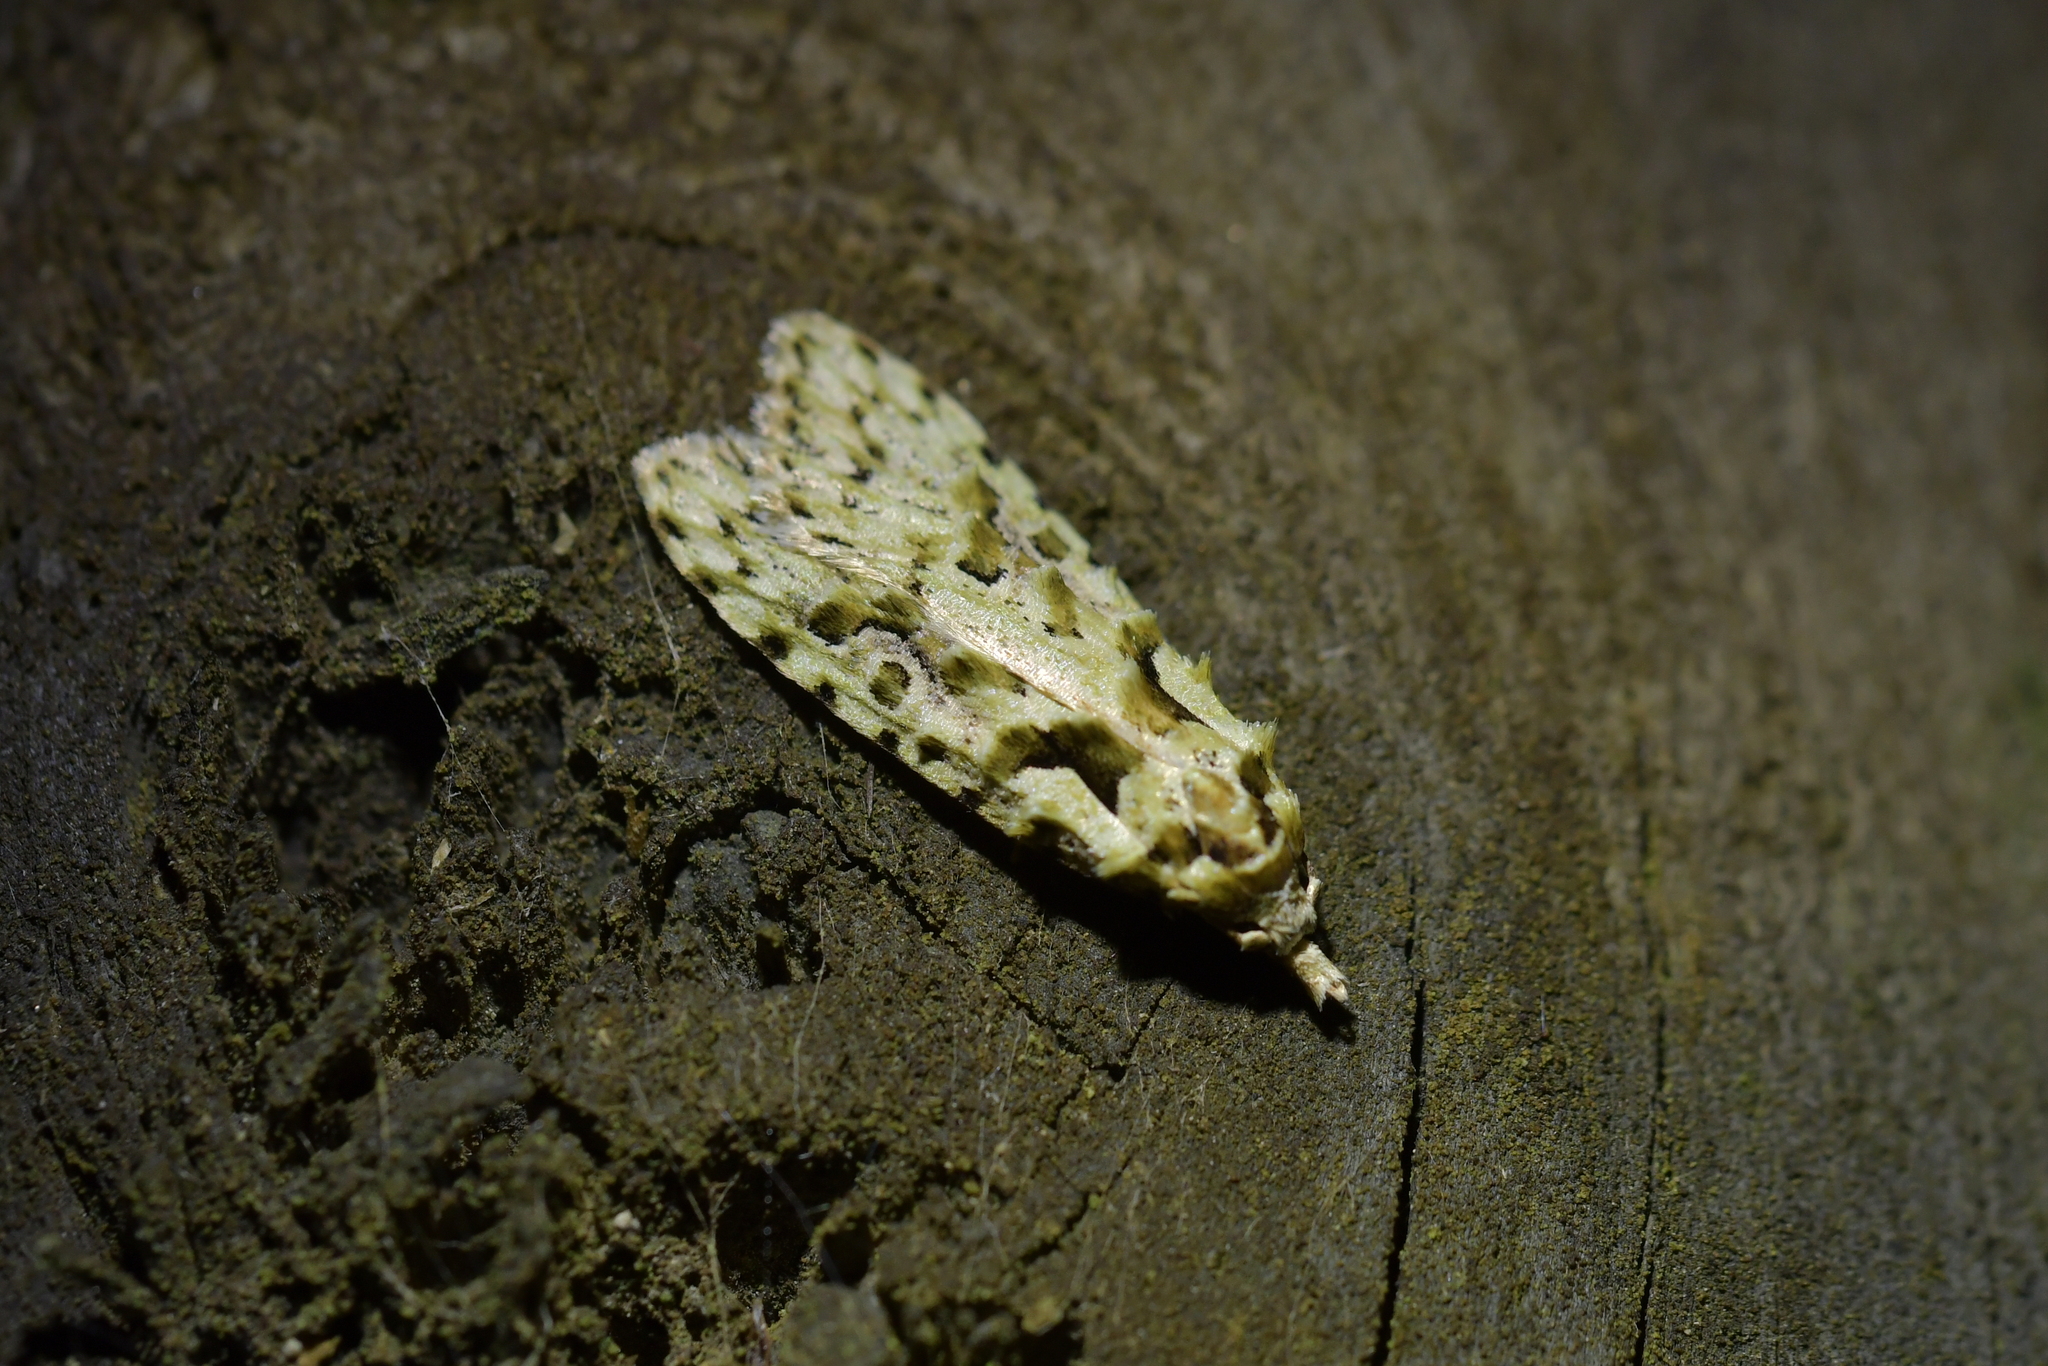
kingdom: Animalia
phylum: Arthropoda
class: Insecta
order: Lepidoptera
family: Carposinidae
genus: Carposina
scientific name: Carposina Heterocrossa eriphylla
